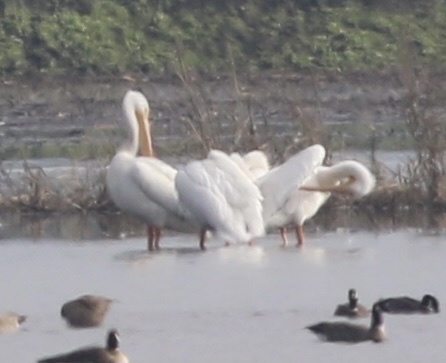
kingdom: Animalia
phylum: Chordata
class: Aves
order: Pelecaniformes
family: Pelecanidae
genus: Pelecanus
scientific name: Pelecanus erythrorhynchos
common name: American white pelican
